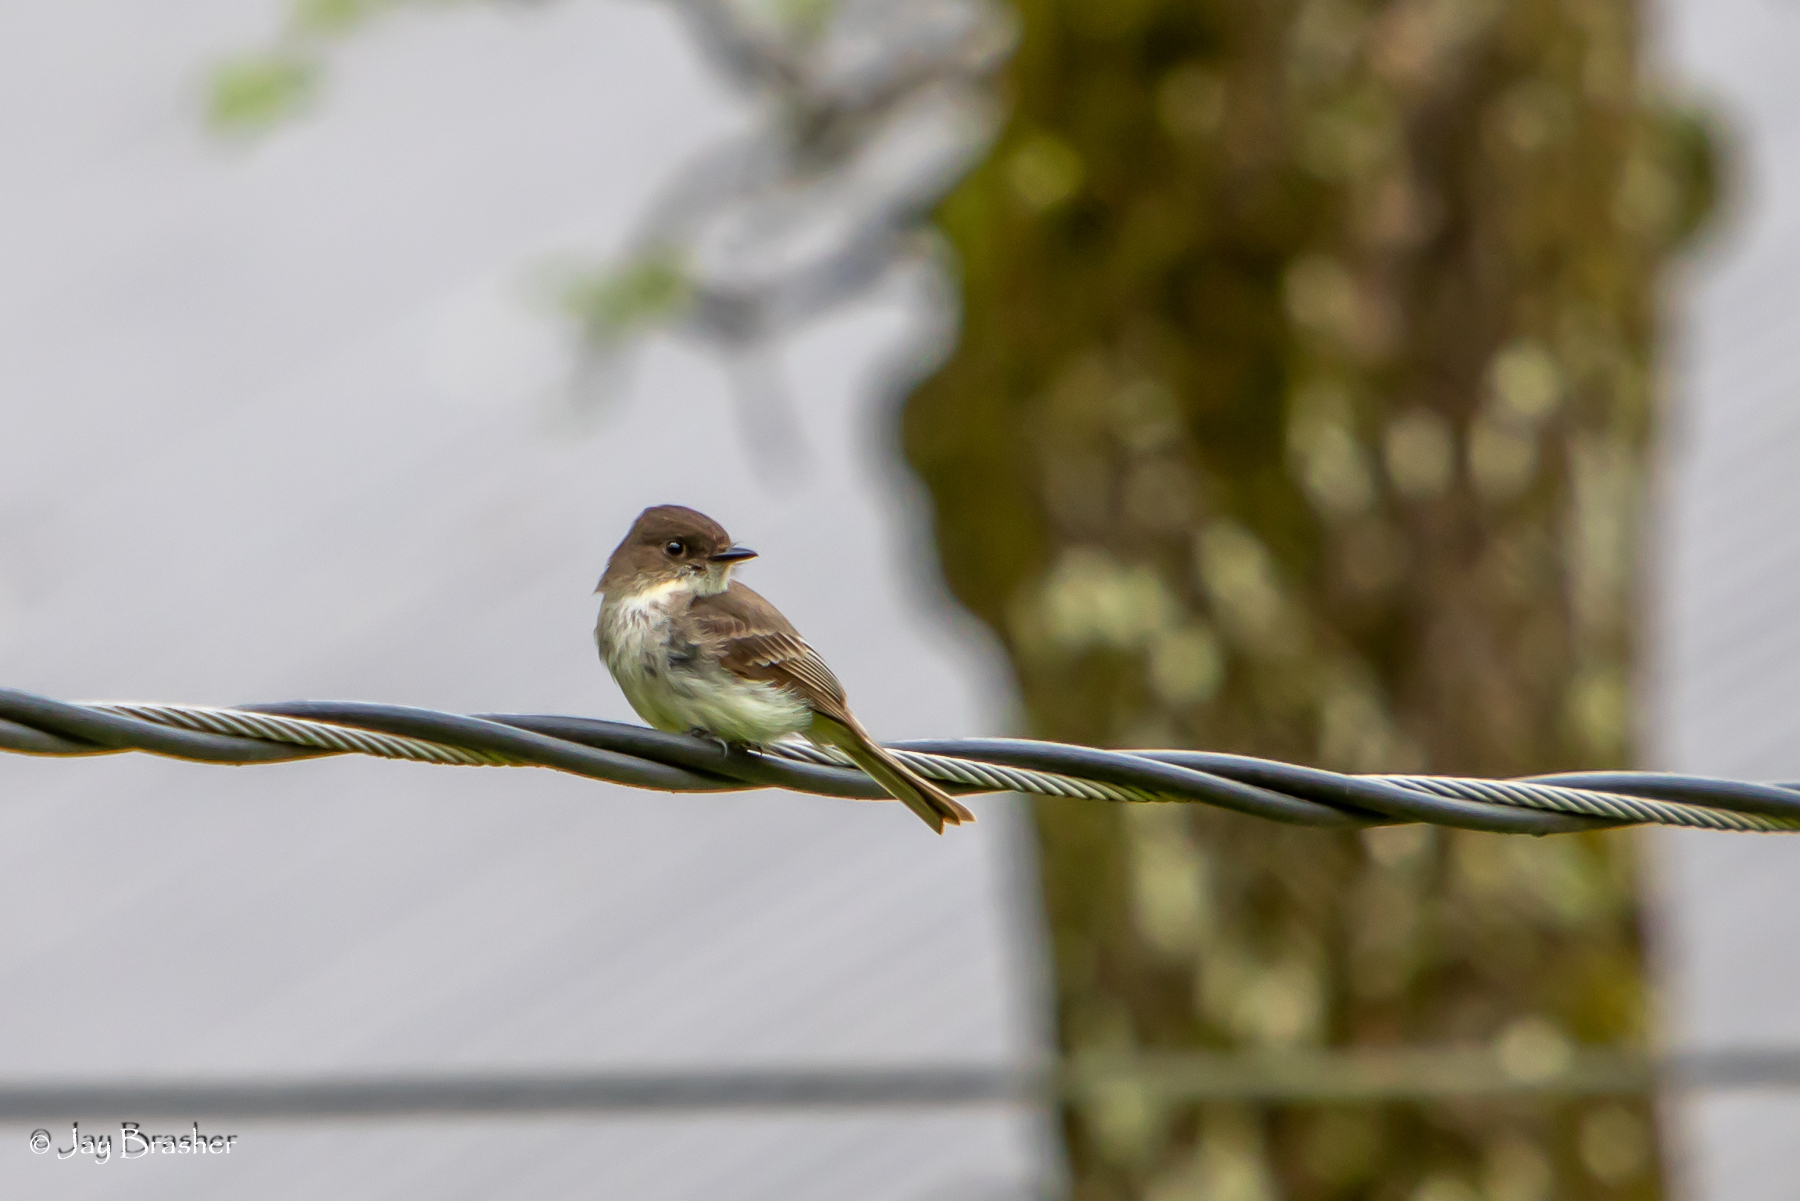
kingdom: Animalia
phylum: Chordata
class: Aves
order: Passeriformes
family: Tyrannidae
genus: Sayornis
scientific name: Sayornis phoebe
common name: Eastern phoebe
